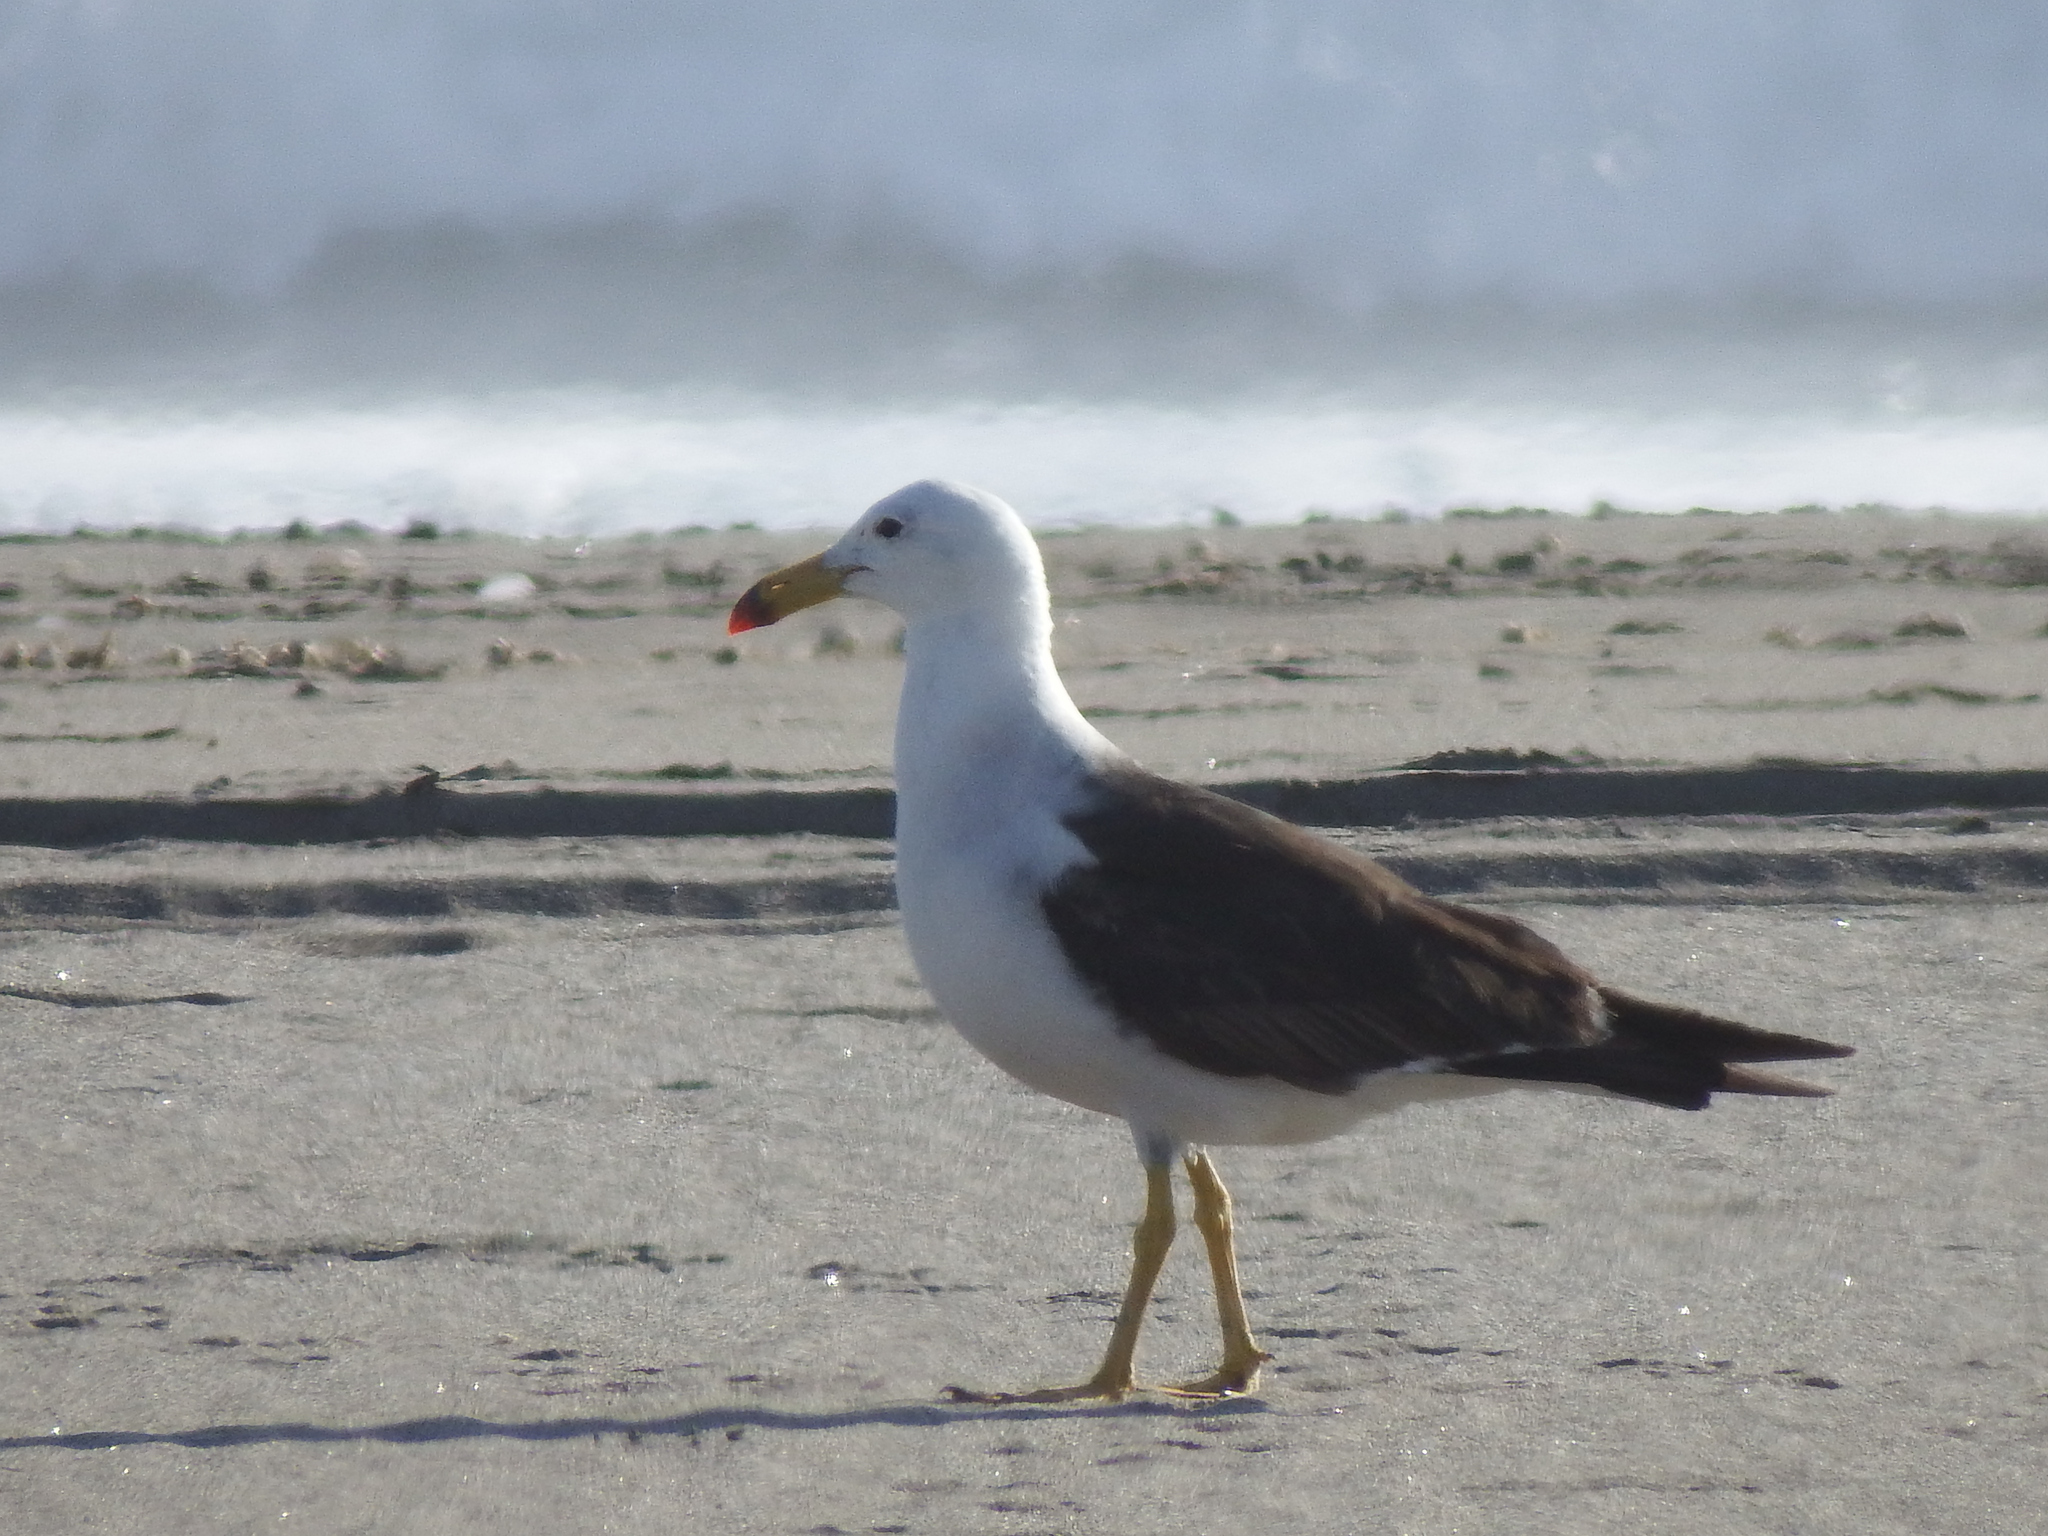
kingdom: Animalia
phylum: Chordata
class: Aves
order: Charadriiformes
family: Laridae
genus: Larus
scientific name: Larus belcheri
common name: Belcher's gull
